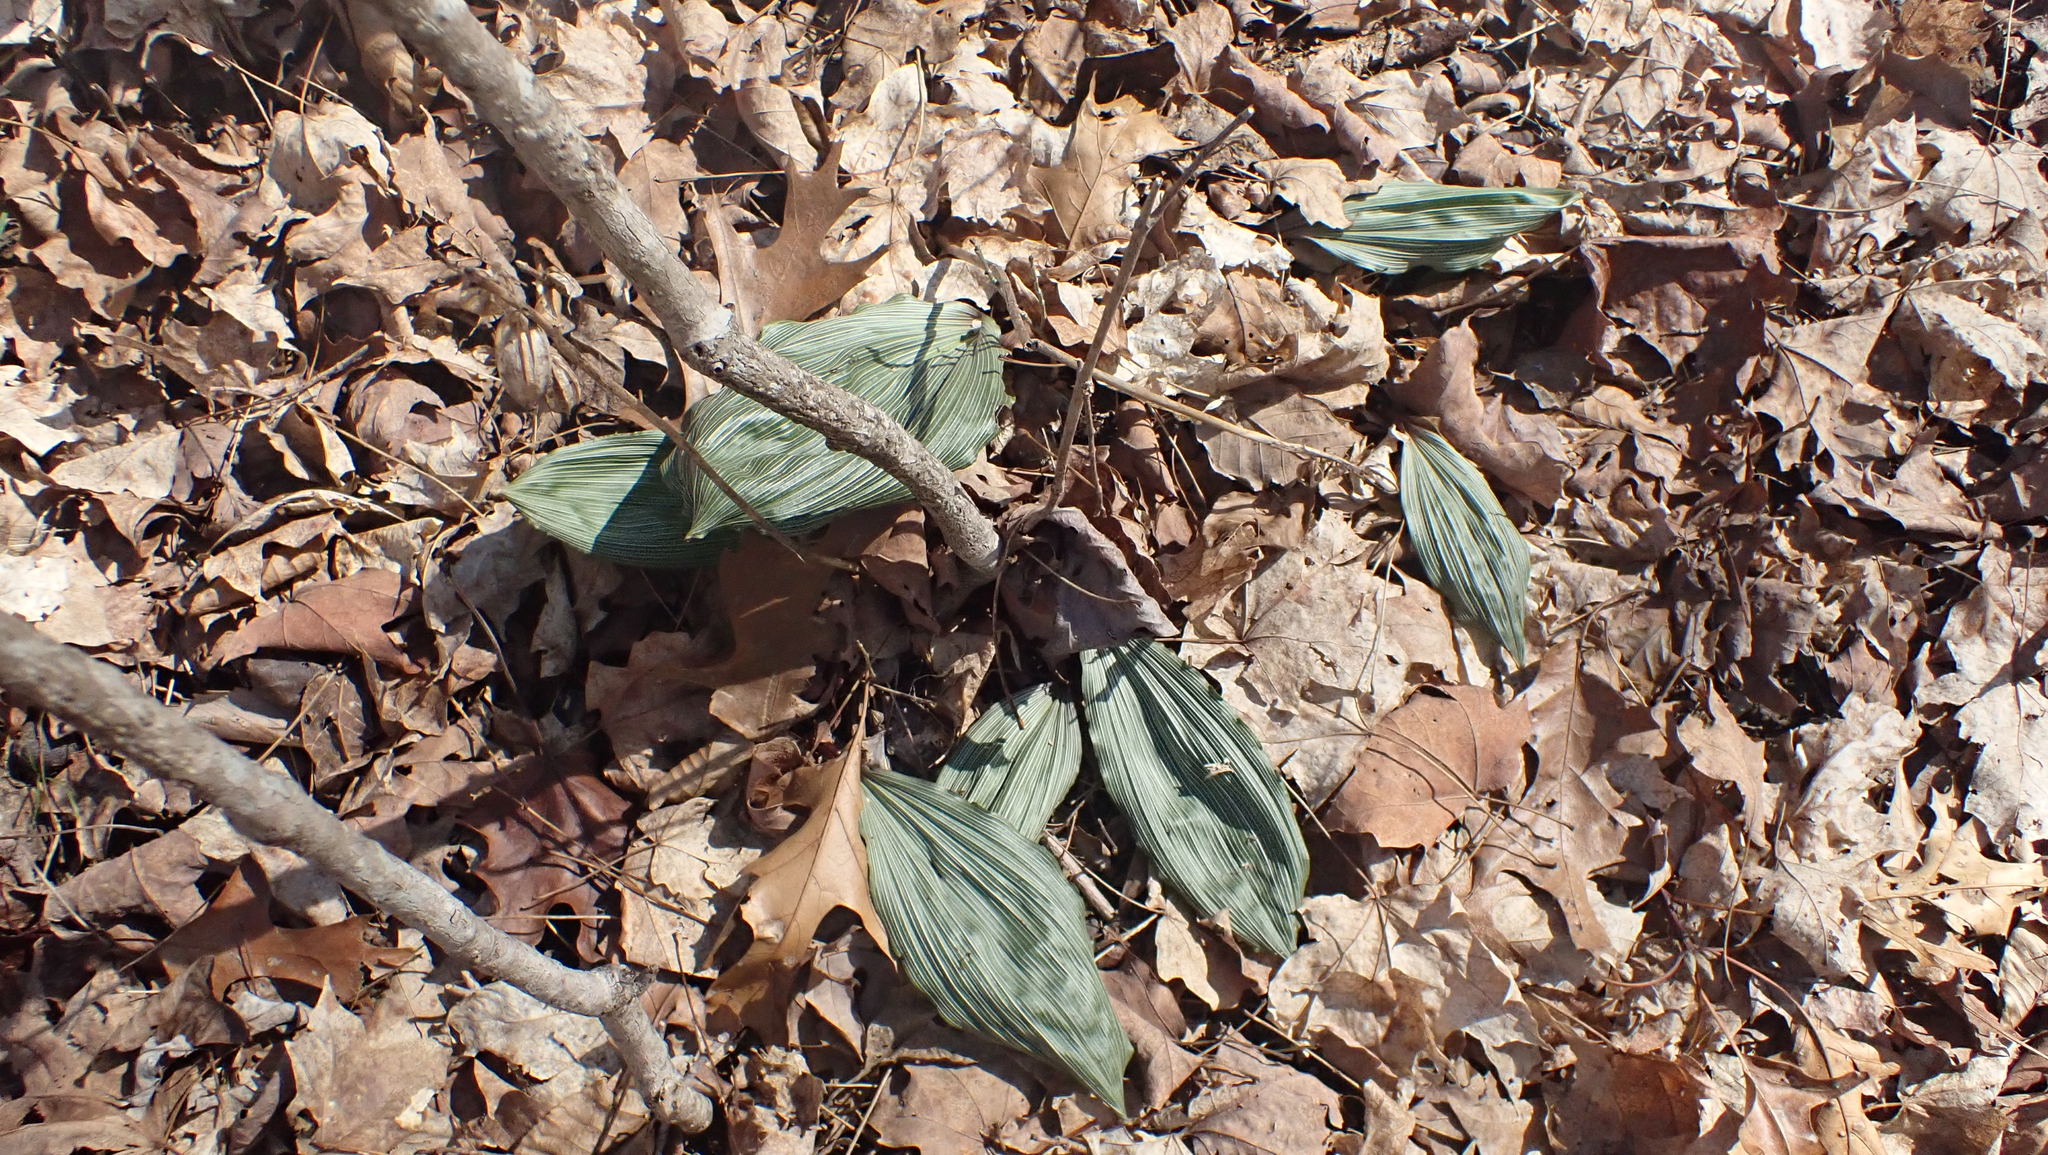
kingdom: Plantae
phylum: Tracheophyta
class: Liliopsida
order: Asparagales
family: Orchidaceae
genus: Aplectrum
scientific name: Aplectrum hyemale
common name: Adam-and-eve
